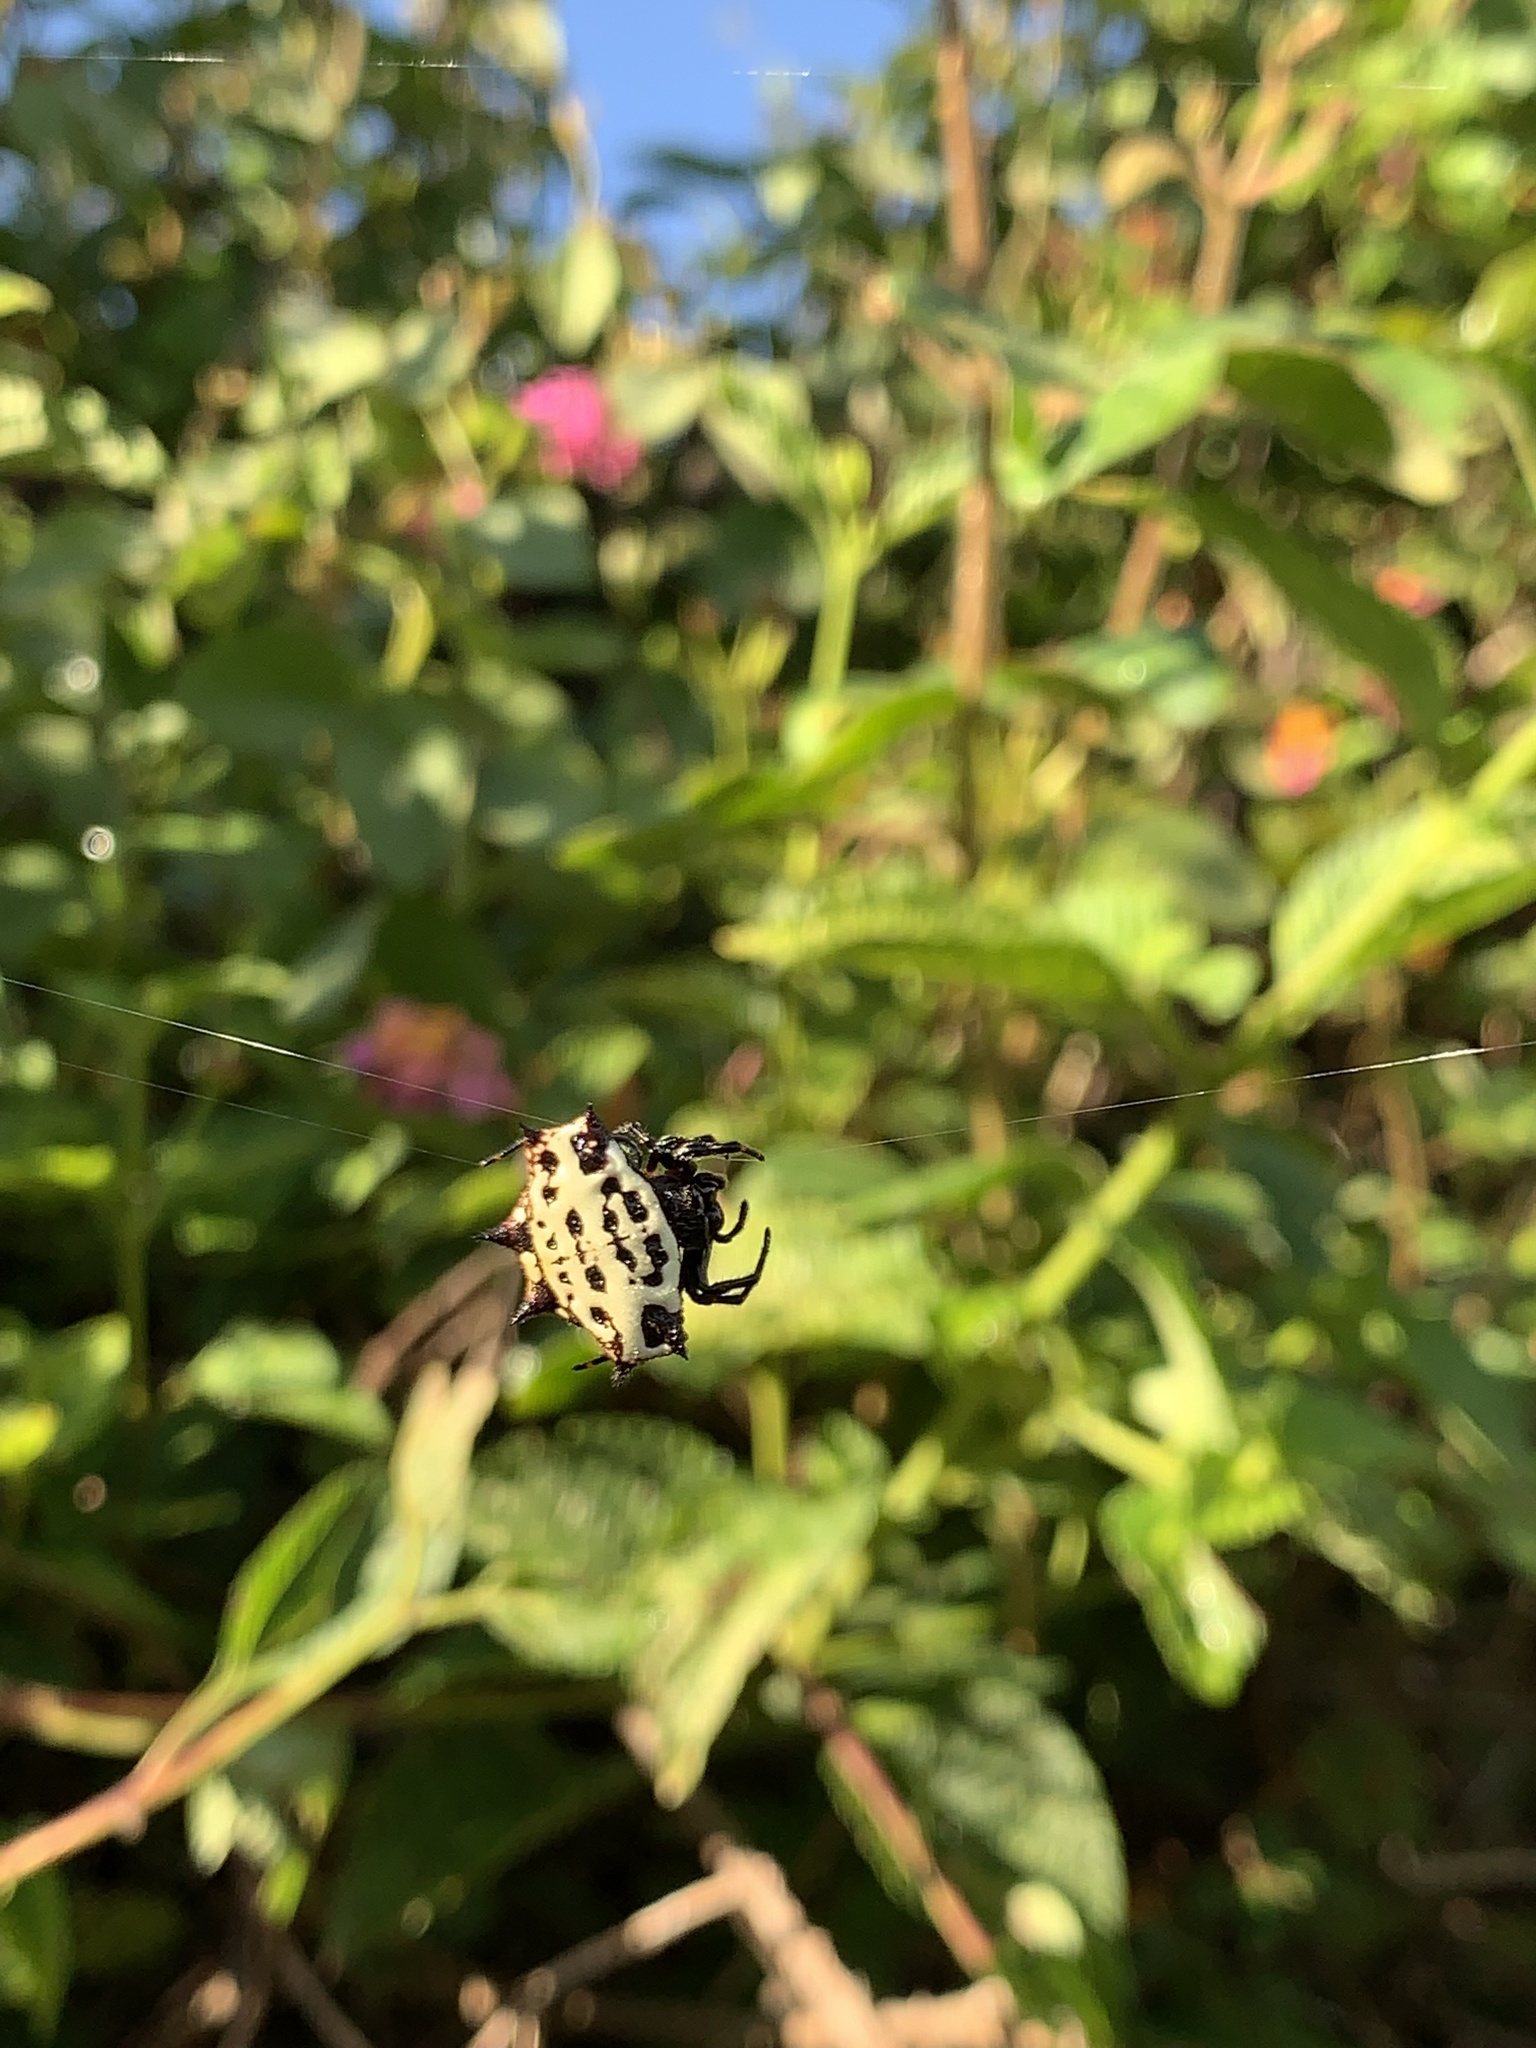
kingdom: Animalia
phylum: Arthropoda
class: Arachnida
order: Araneae
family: Araneidae
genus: Gasteracantha
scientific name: Gasteracantha cancriformis
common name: Orb weavers
